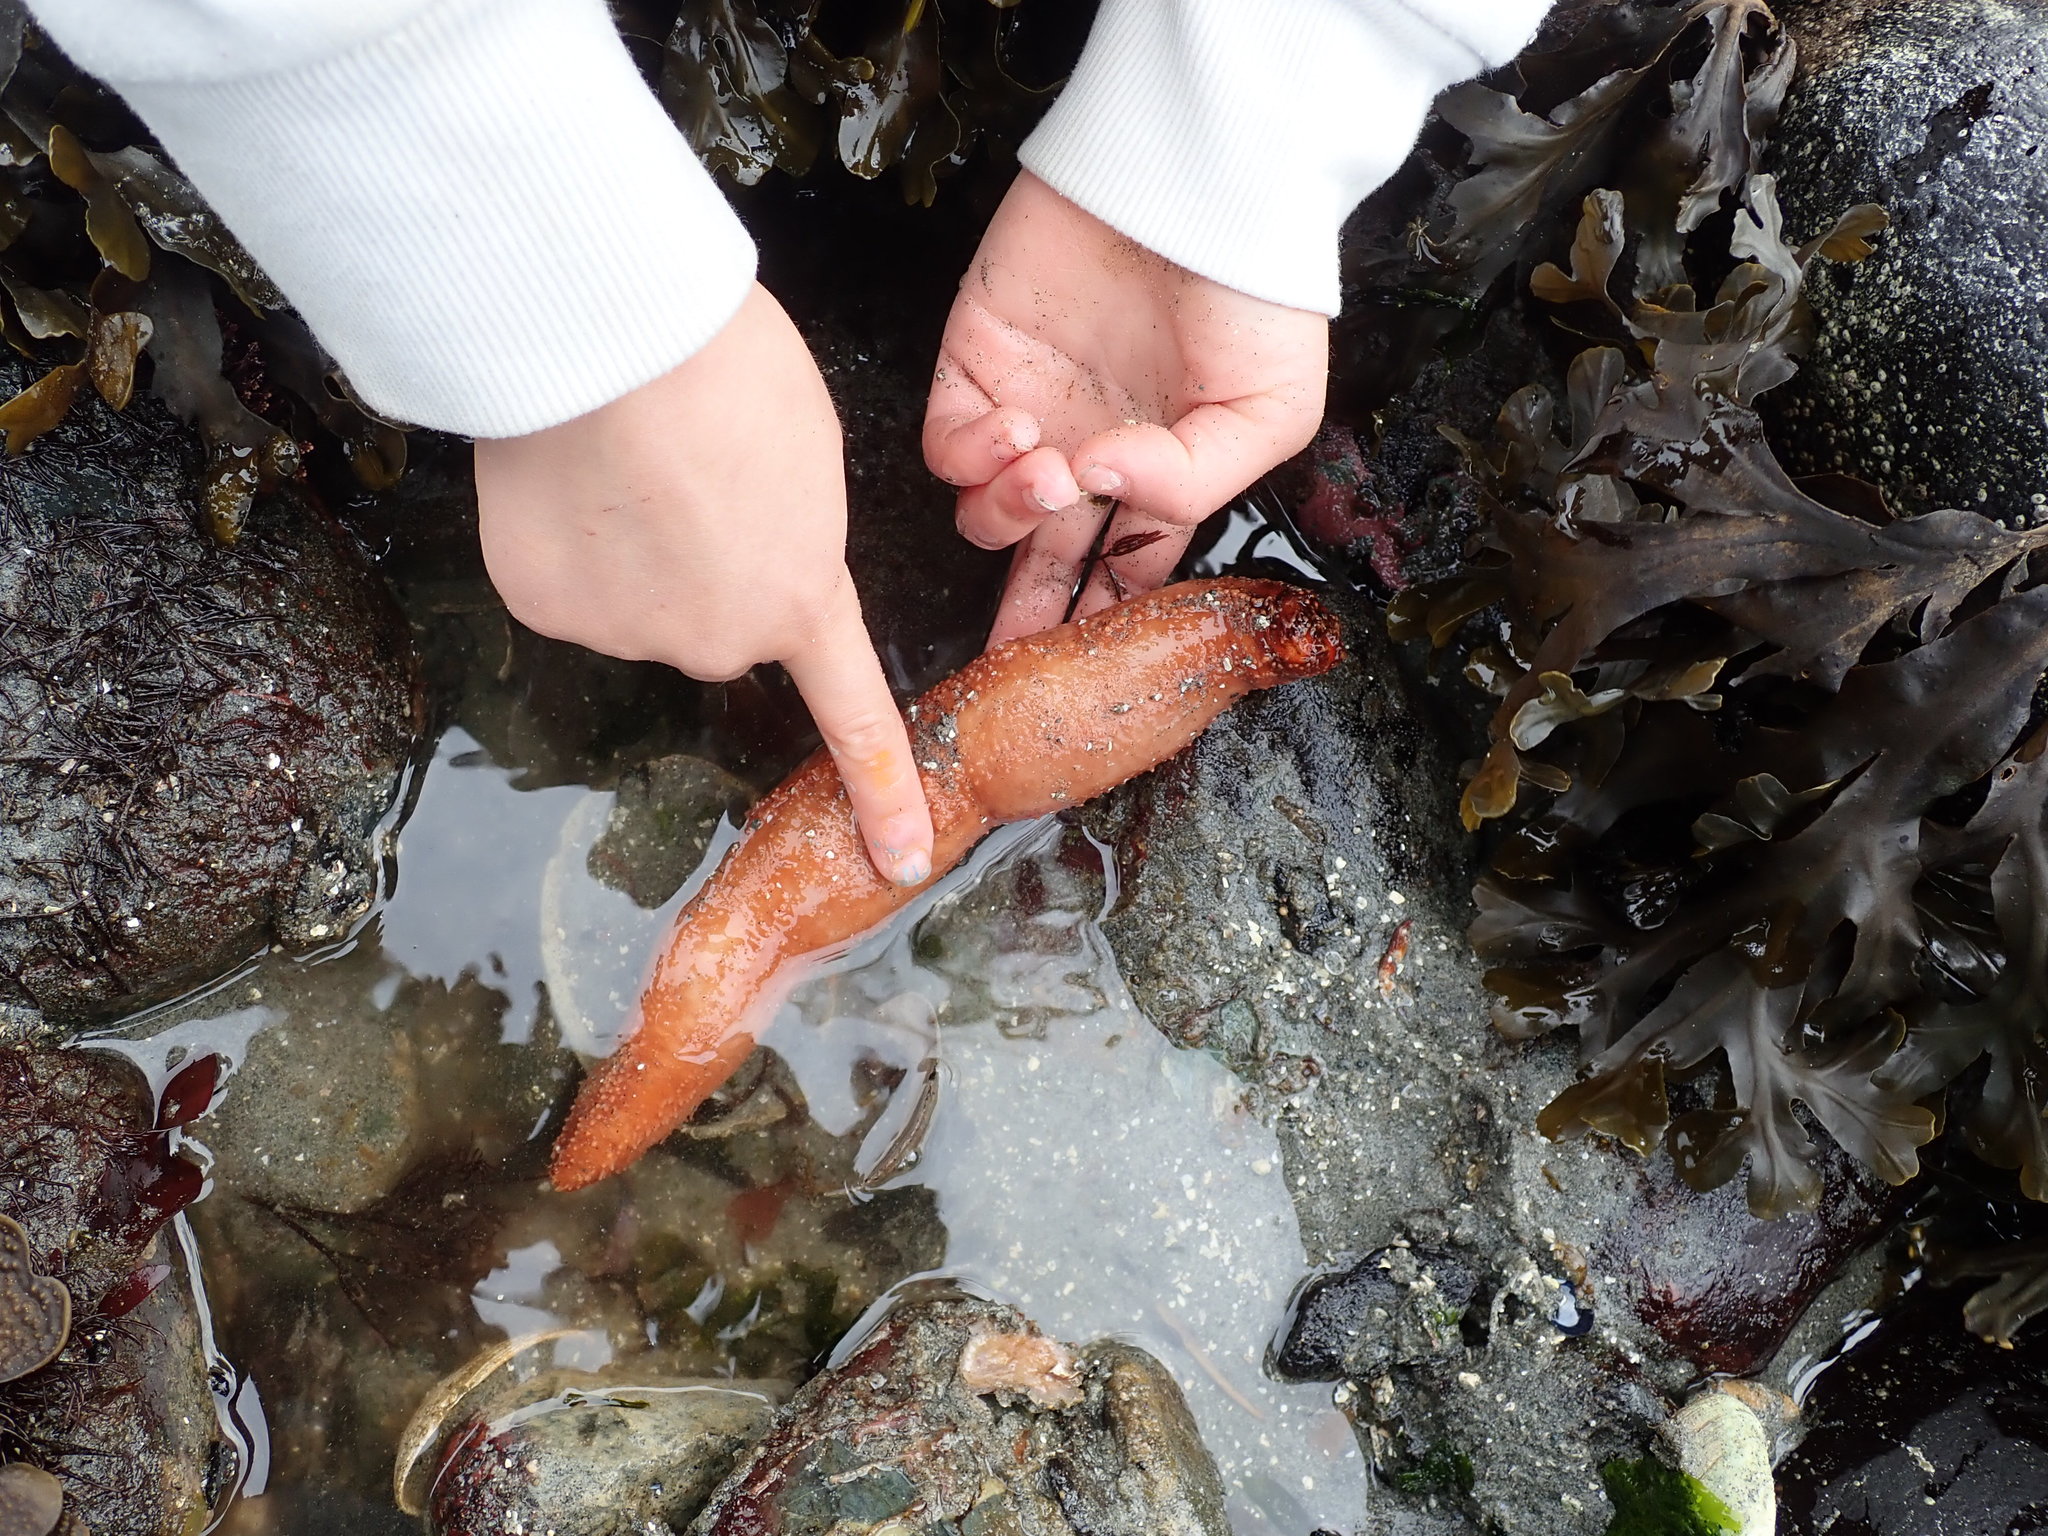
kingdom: Animalia
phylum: Echinodermata
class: Holothuroidea
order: Dendrochirotida
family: Cucumariidae
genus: Cucumaria
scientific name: Cucumaria miniata
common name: Orange sea cucumber
